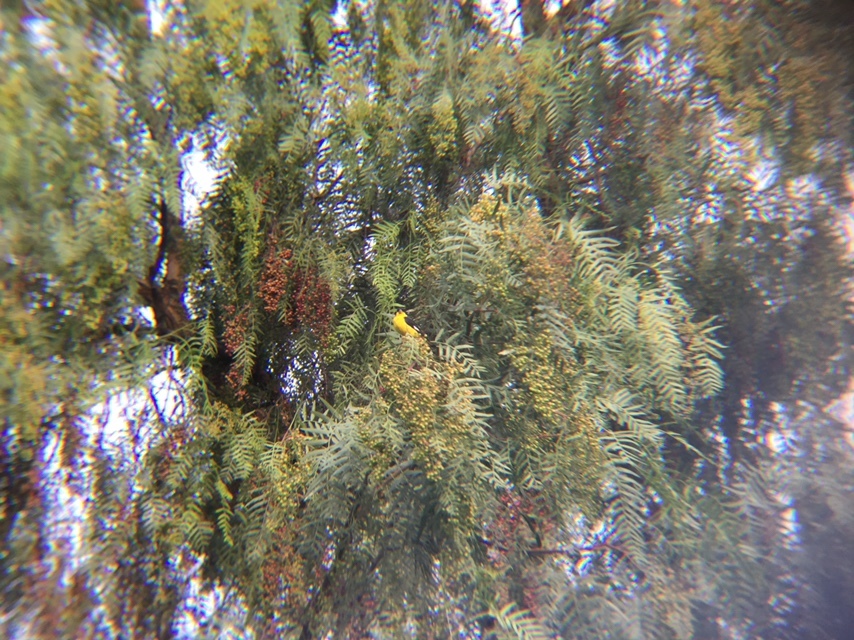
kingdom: Animalia
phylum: Chordata
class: Aves
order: Passeriformes
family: Fringillidae
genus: Spinus
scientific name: Spinus psaltria
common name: Lesser goldfinch
